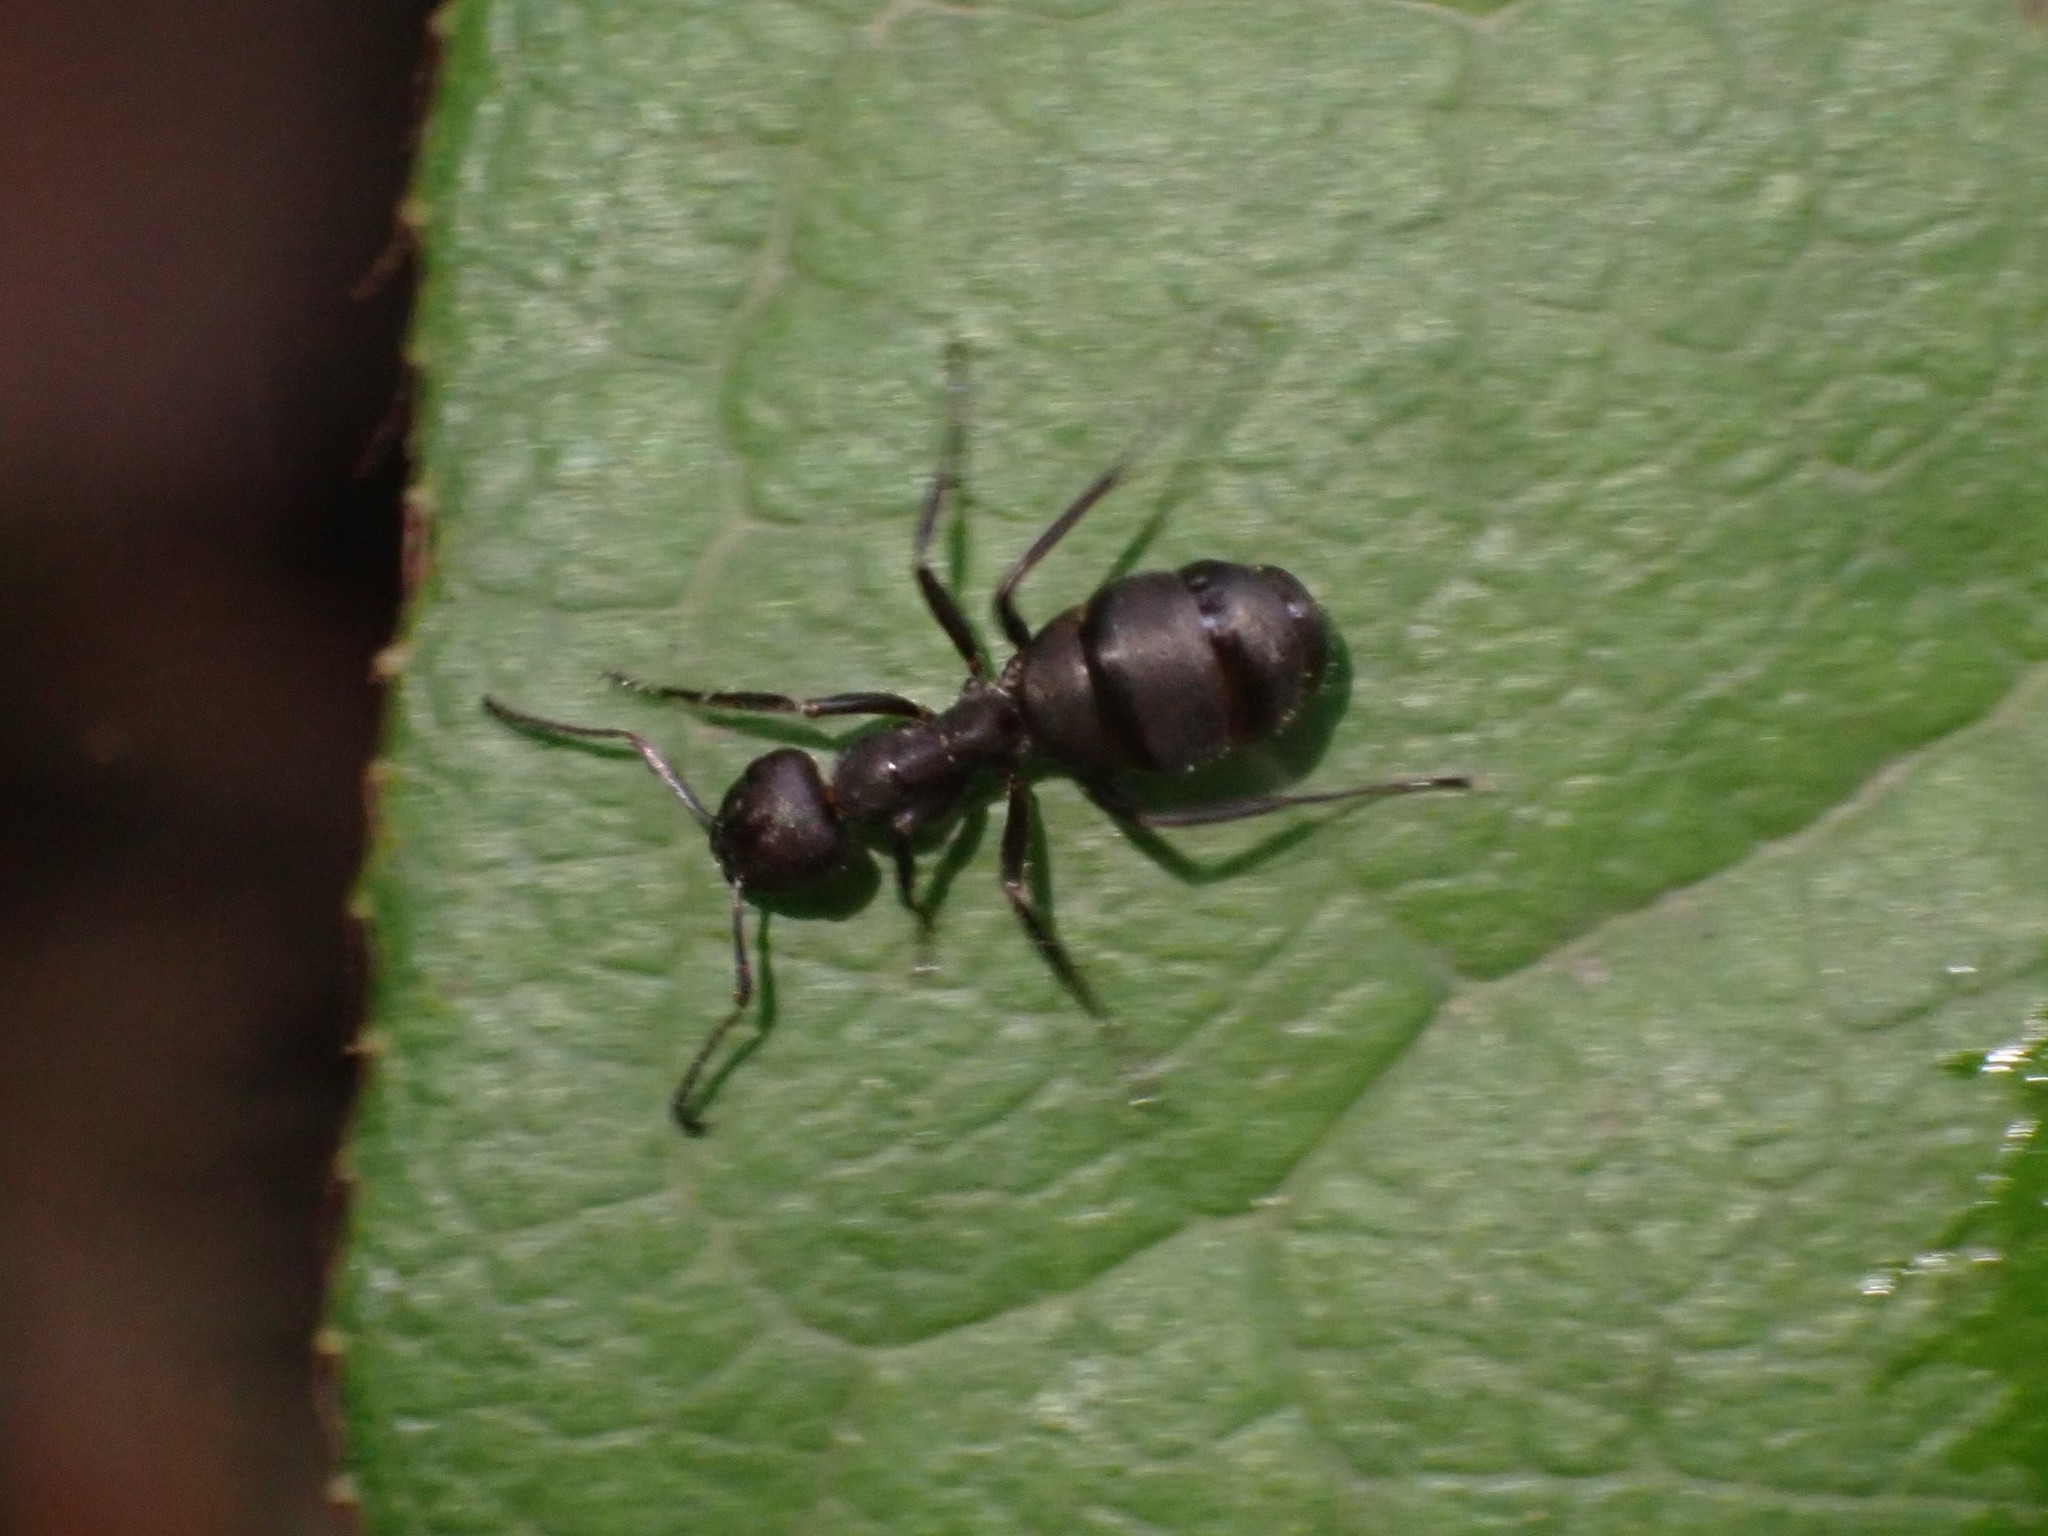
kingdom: Animalia
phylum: Arthropoda
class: Insecta
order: Hymenoptera
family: Formicidae
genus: Formica
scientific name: Formica obscuripes
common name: Western thatching ant
